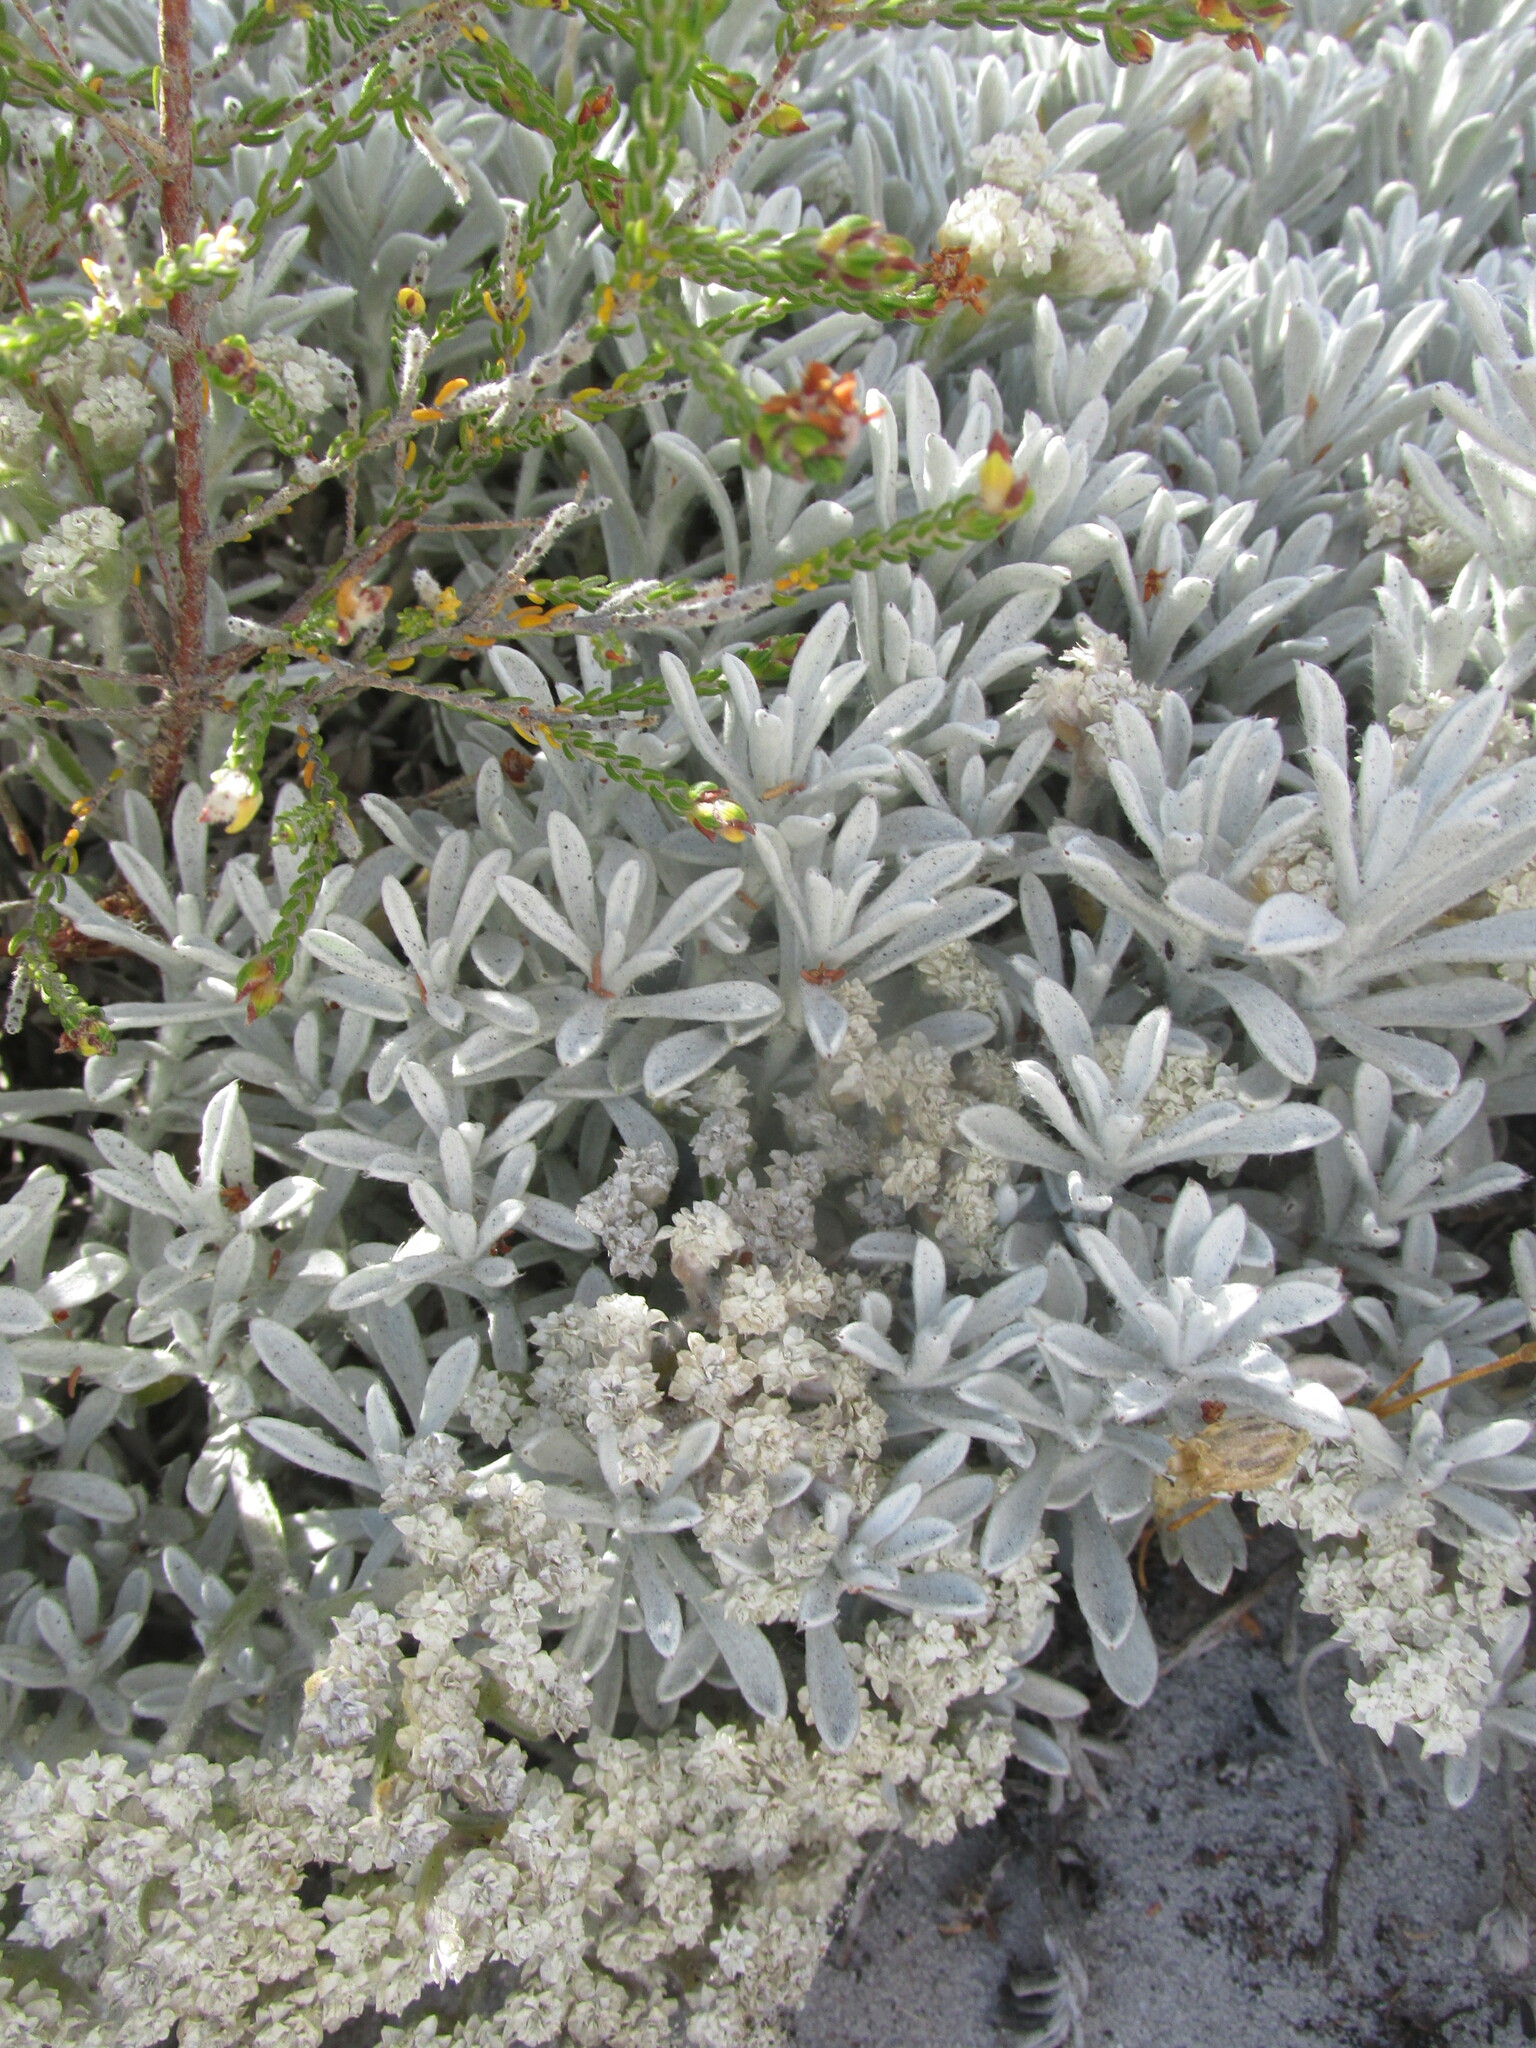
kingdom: Plantae
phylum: Tracheophyta
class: Magnoliopsida
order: Asterales
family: Asteraceae
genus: Petalacte
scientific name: Petalacte coronata
